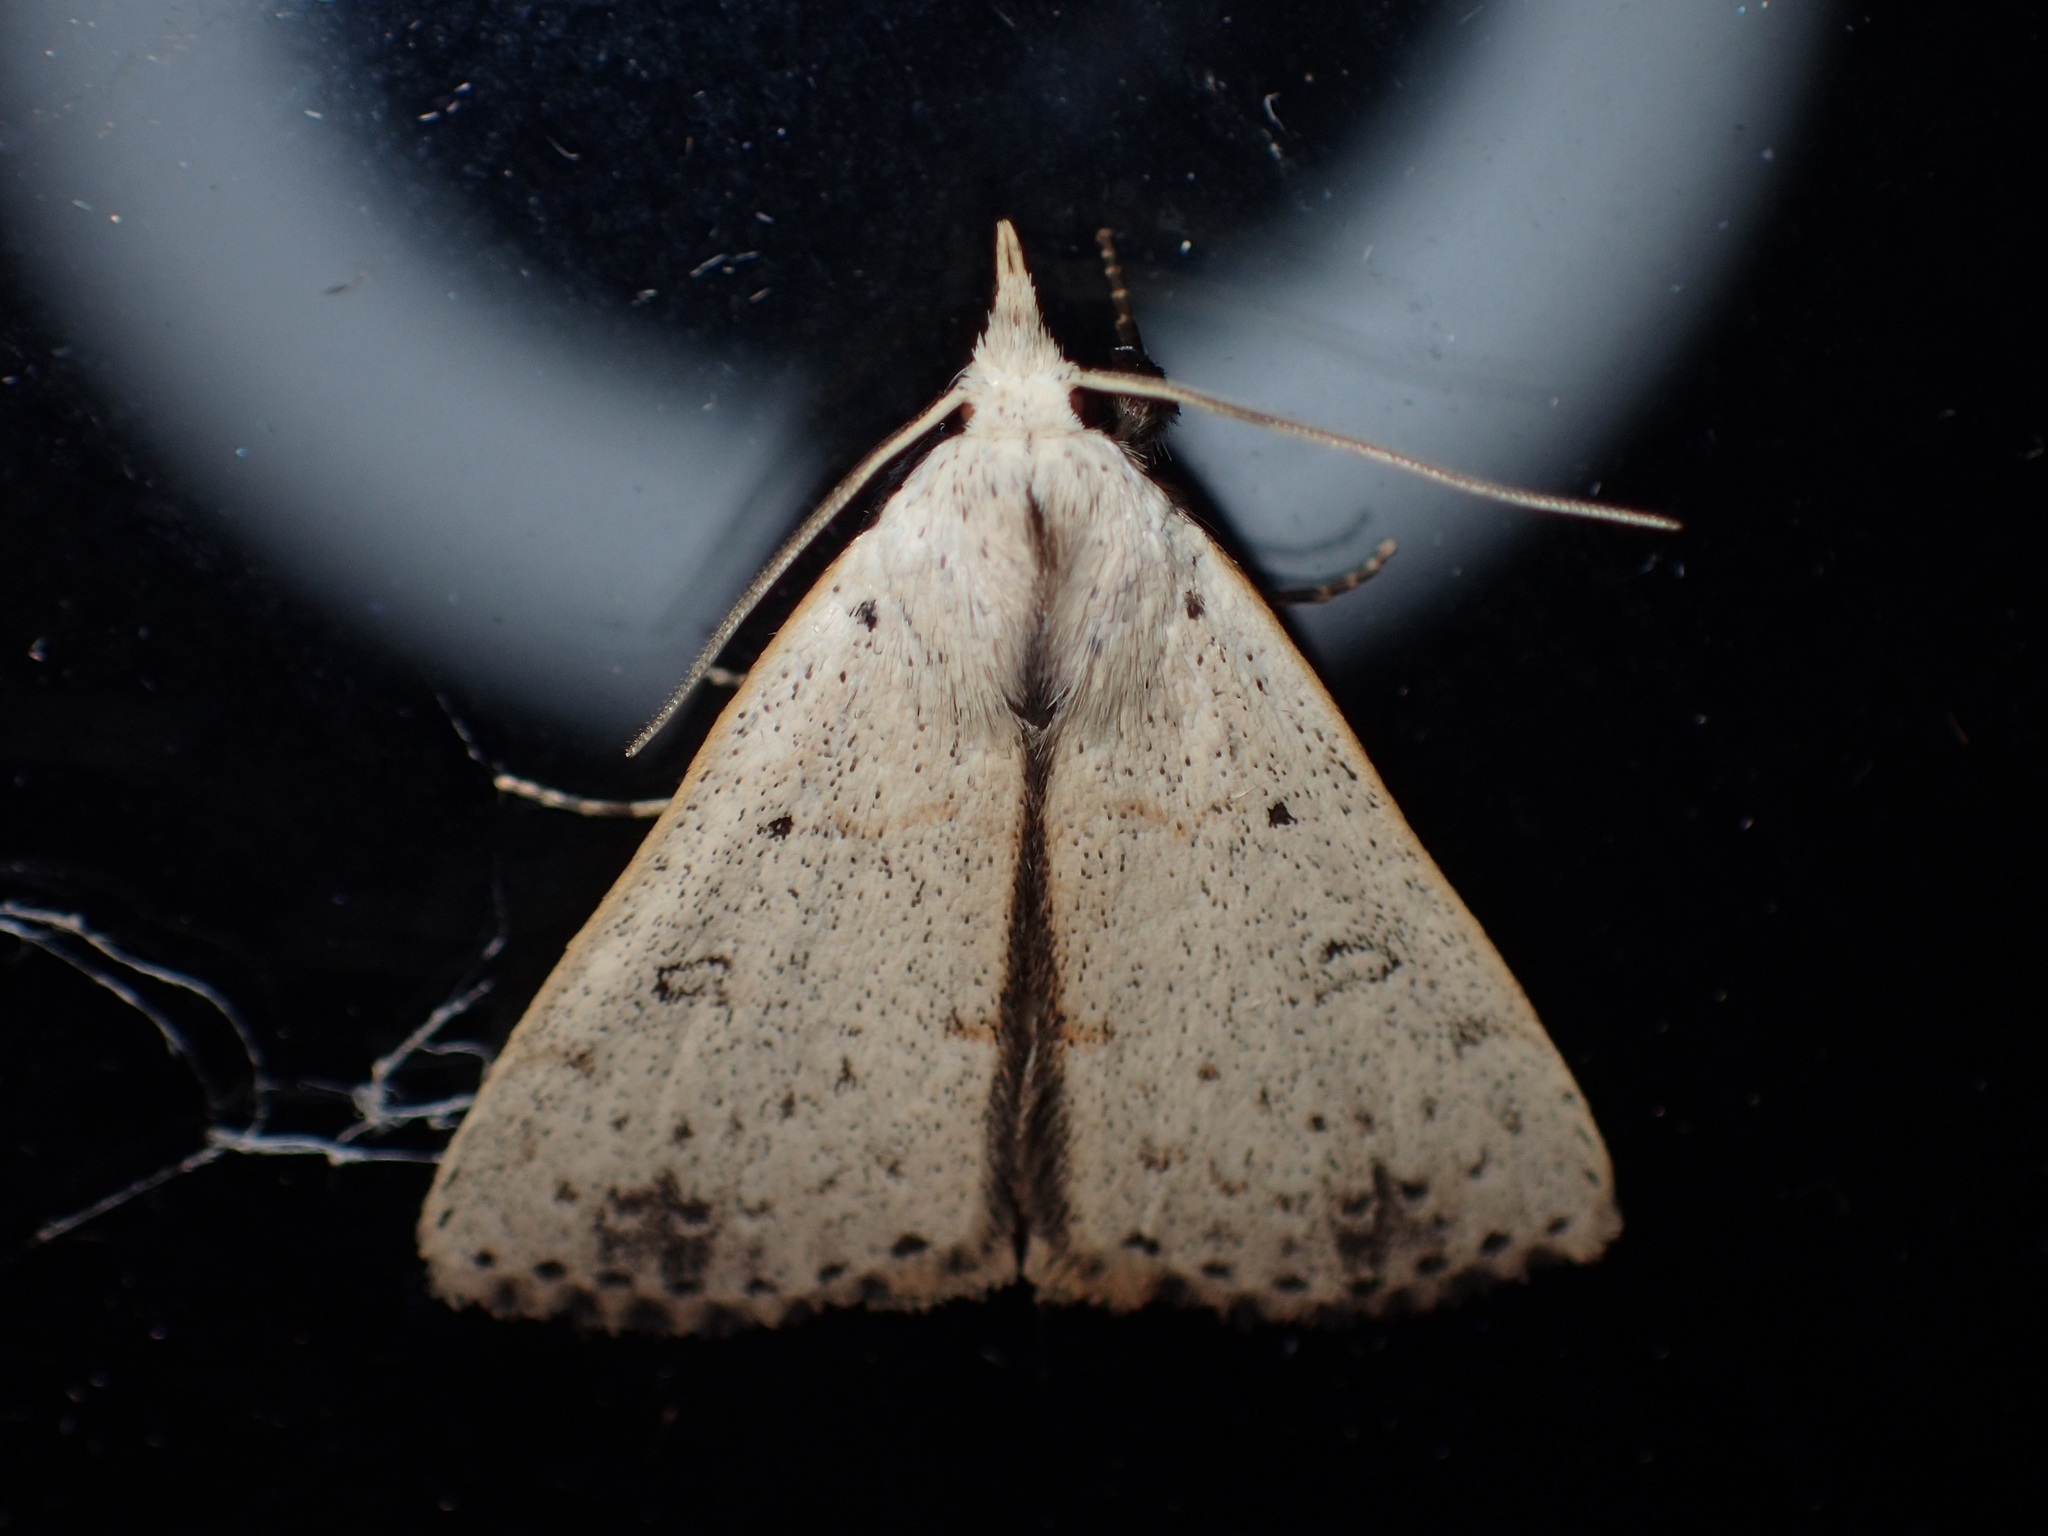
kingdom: Animalia
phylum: Arthropoda
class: Insecta
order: Lepidoptera
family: Erebidae
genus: Scolecocampa
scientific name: Scolecocampa liburna
